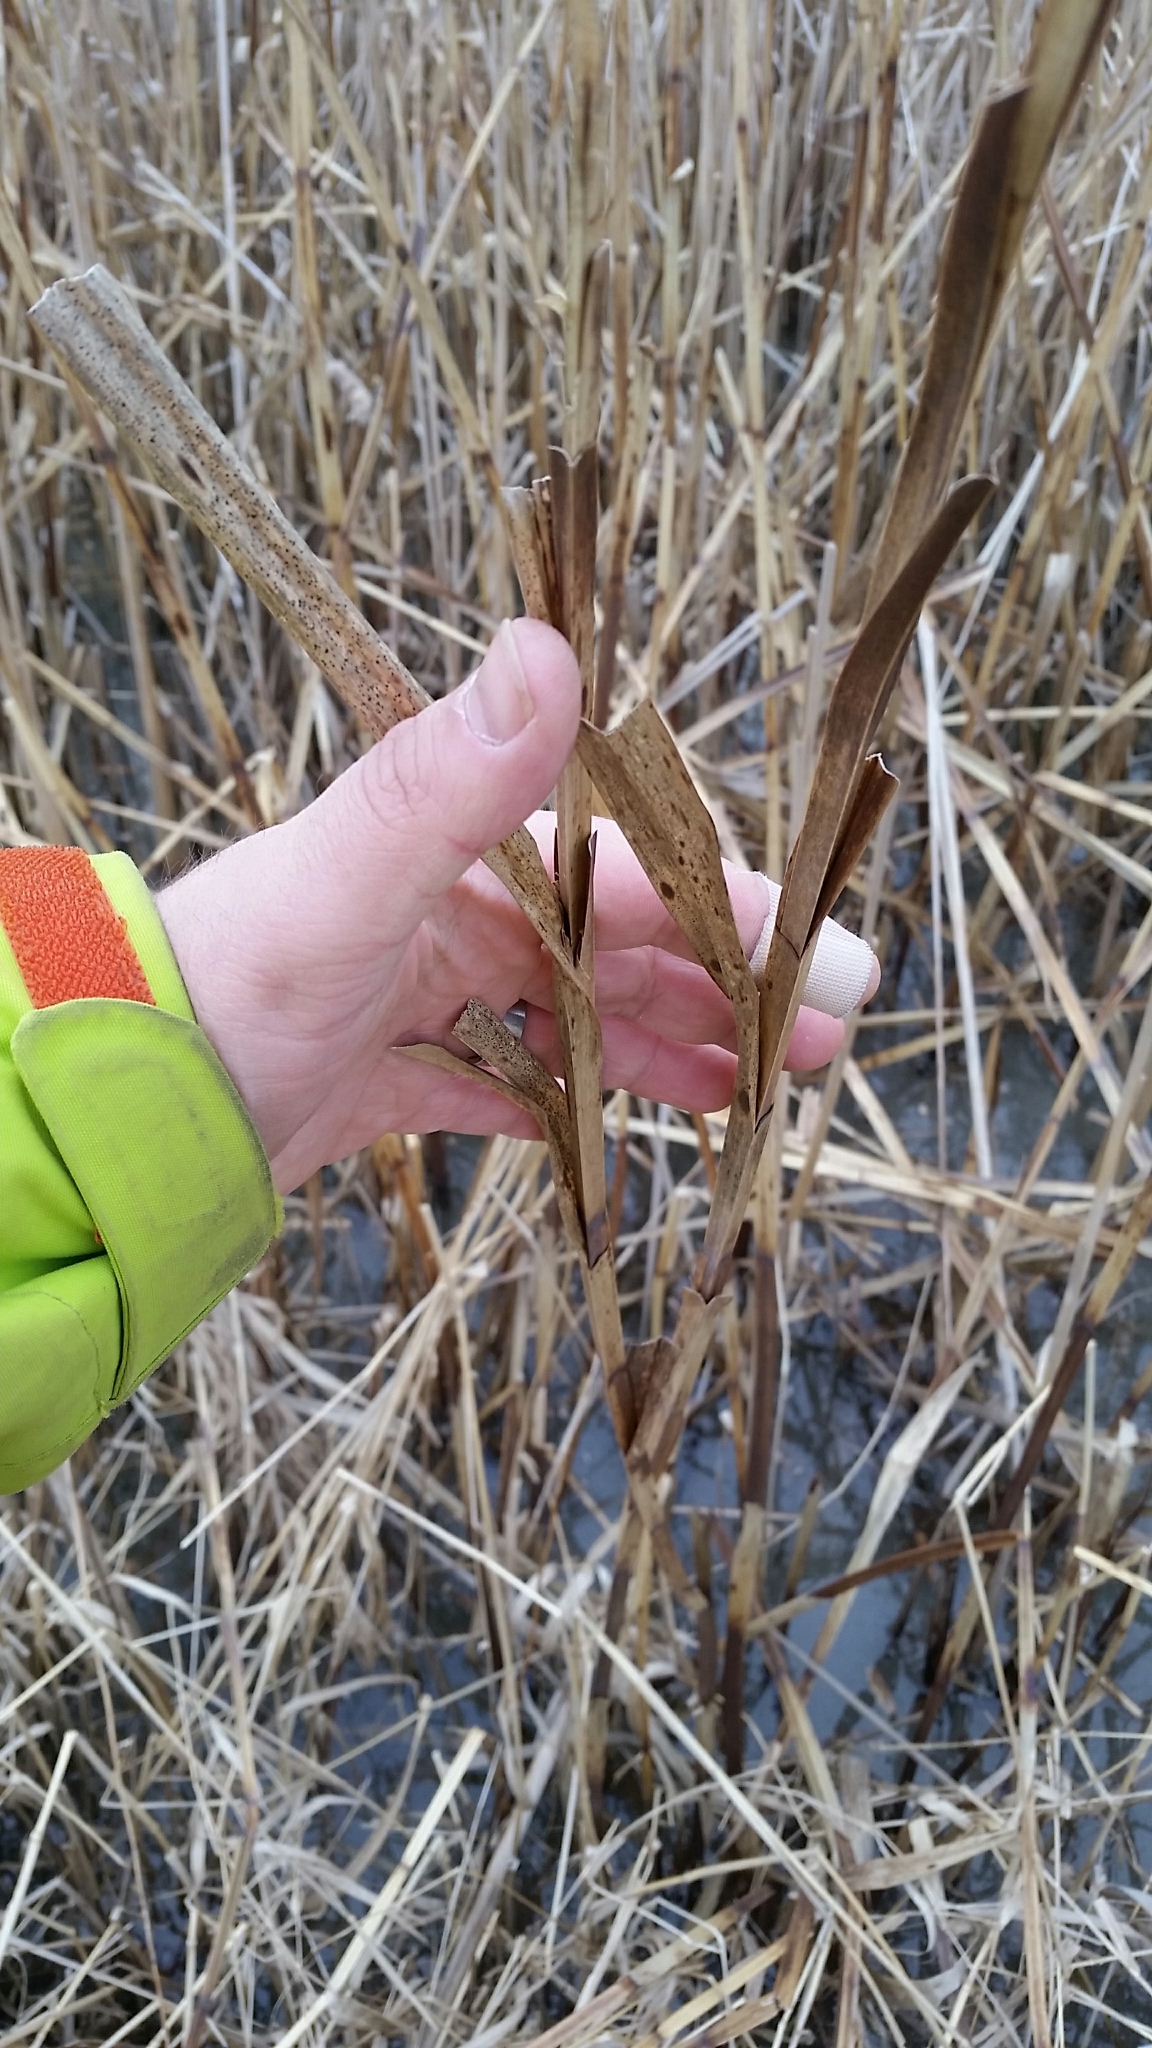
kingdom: Plantae
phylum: Tracheophyta
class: Liliopsida
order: Poales
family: Cyperaceae
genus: Bolboschoenus
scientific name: Bolboschoenus fluviatilis
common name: River bulrush
